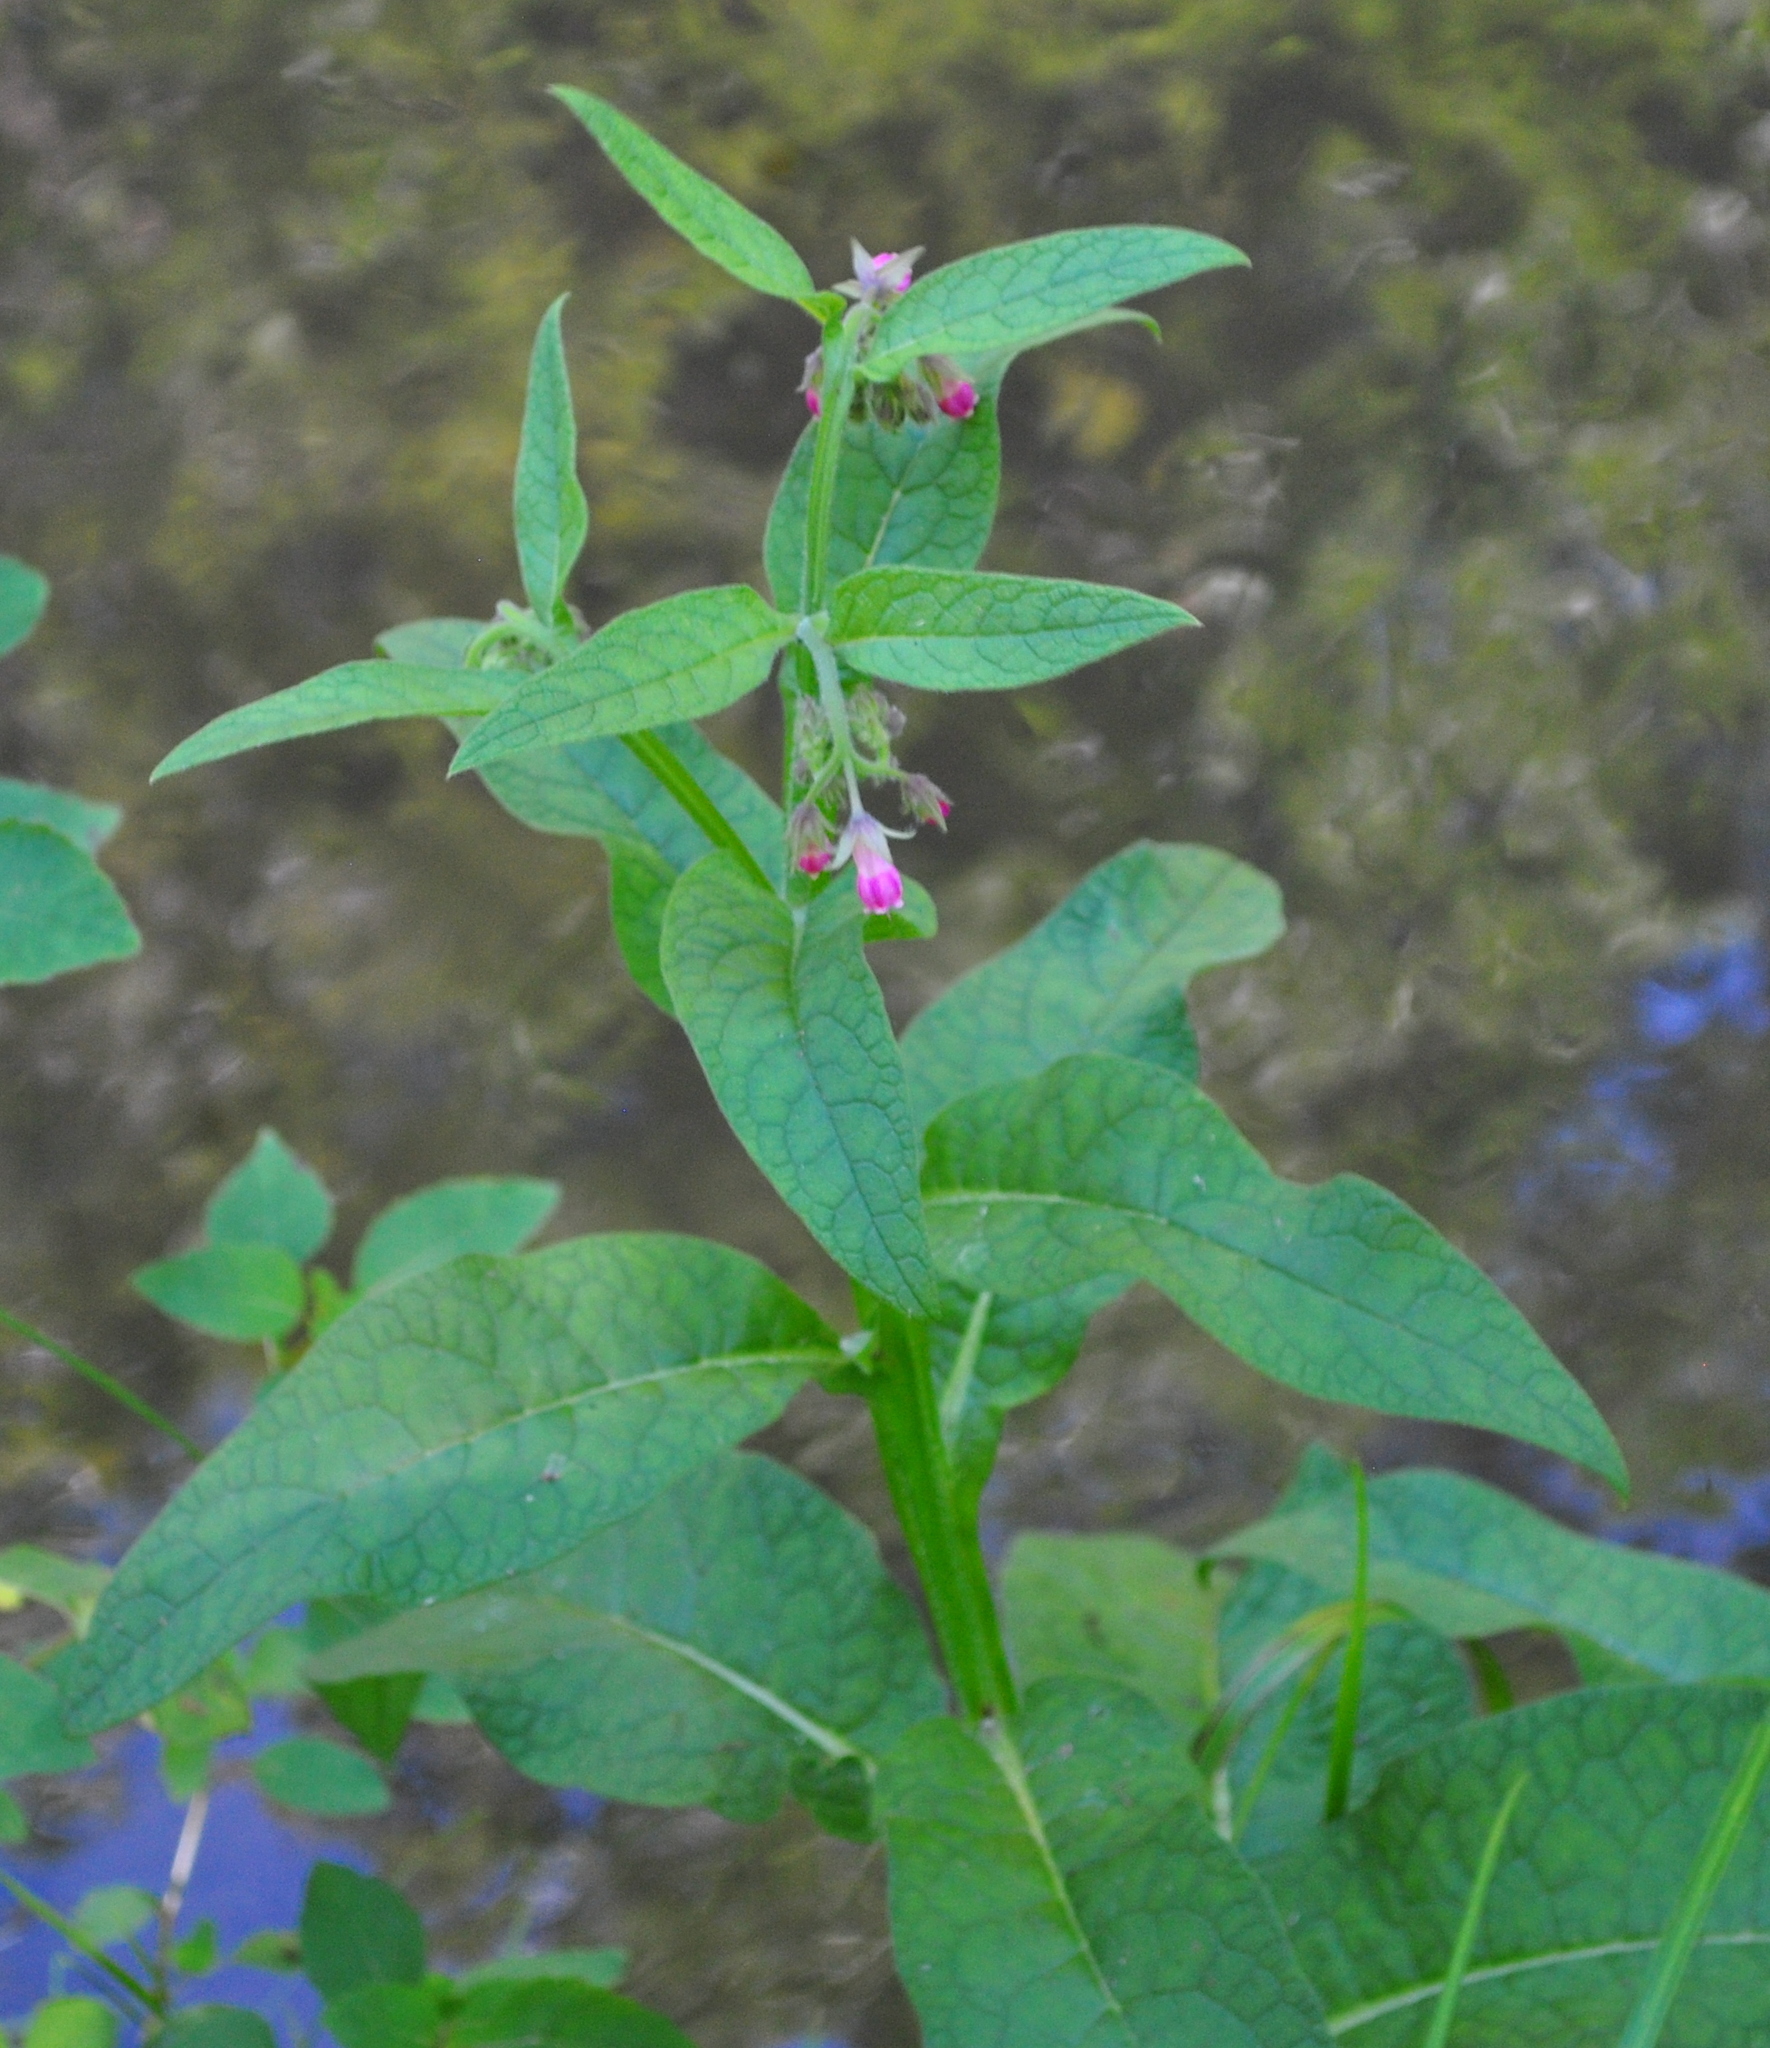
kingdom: Plantae
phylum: Tracheophyta
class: Magnoliopsida
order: Boraginales
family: Boraginaceae
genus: Symphytum
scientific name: Symphytum officinale
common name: Common comfrey
